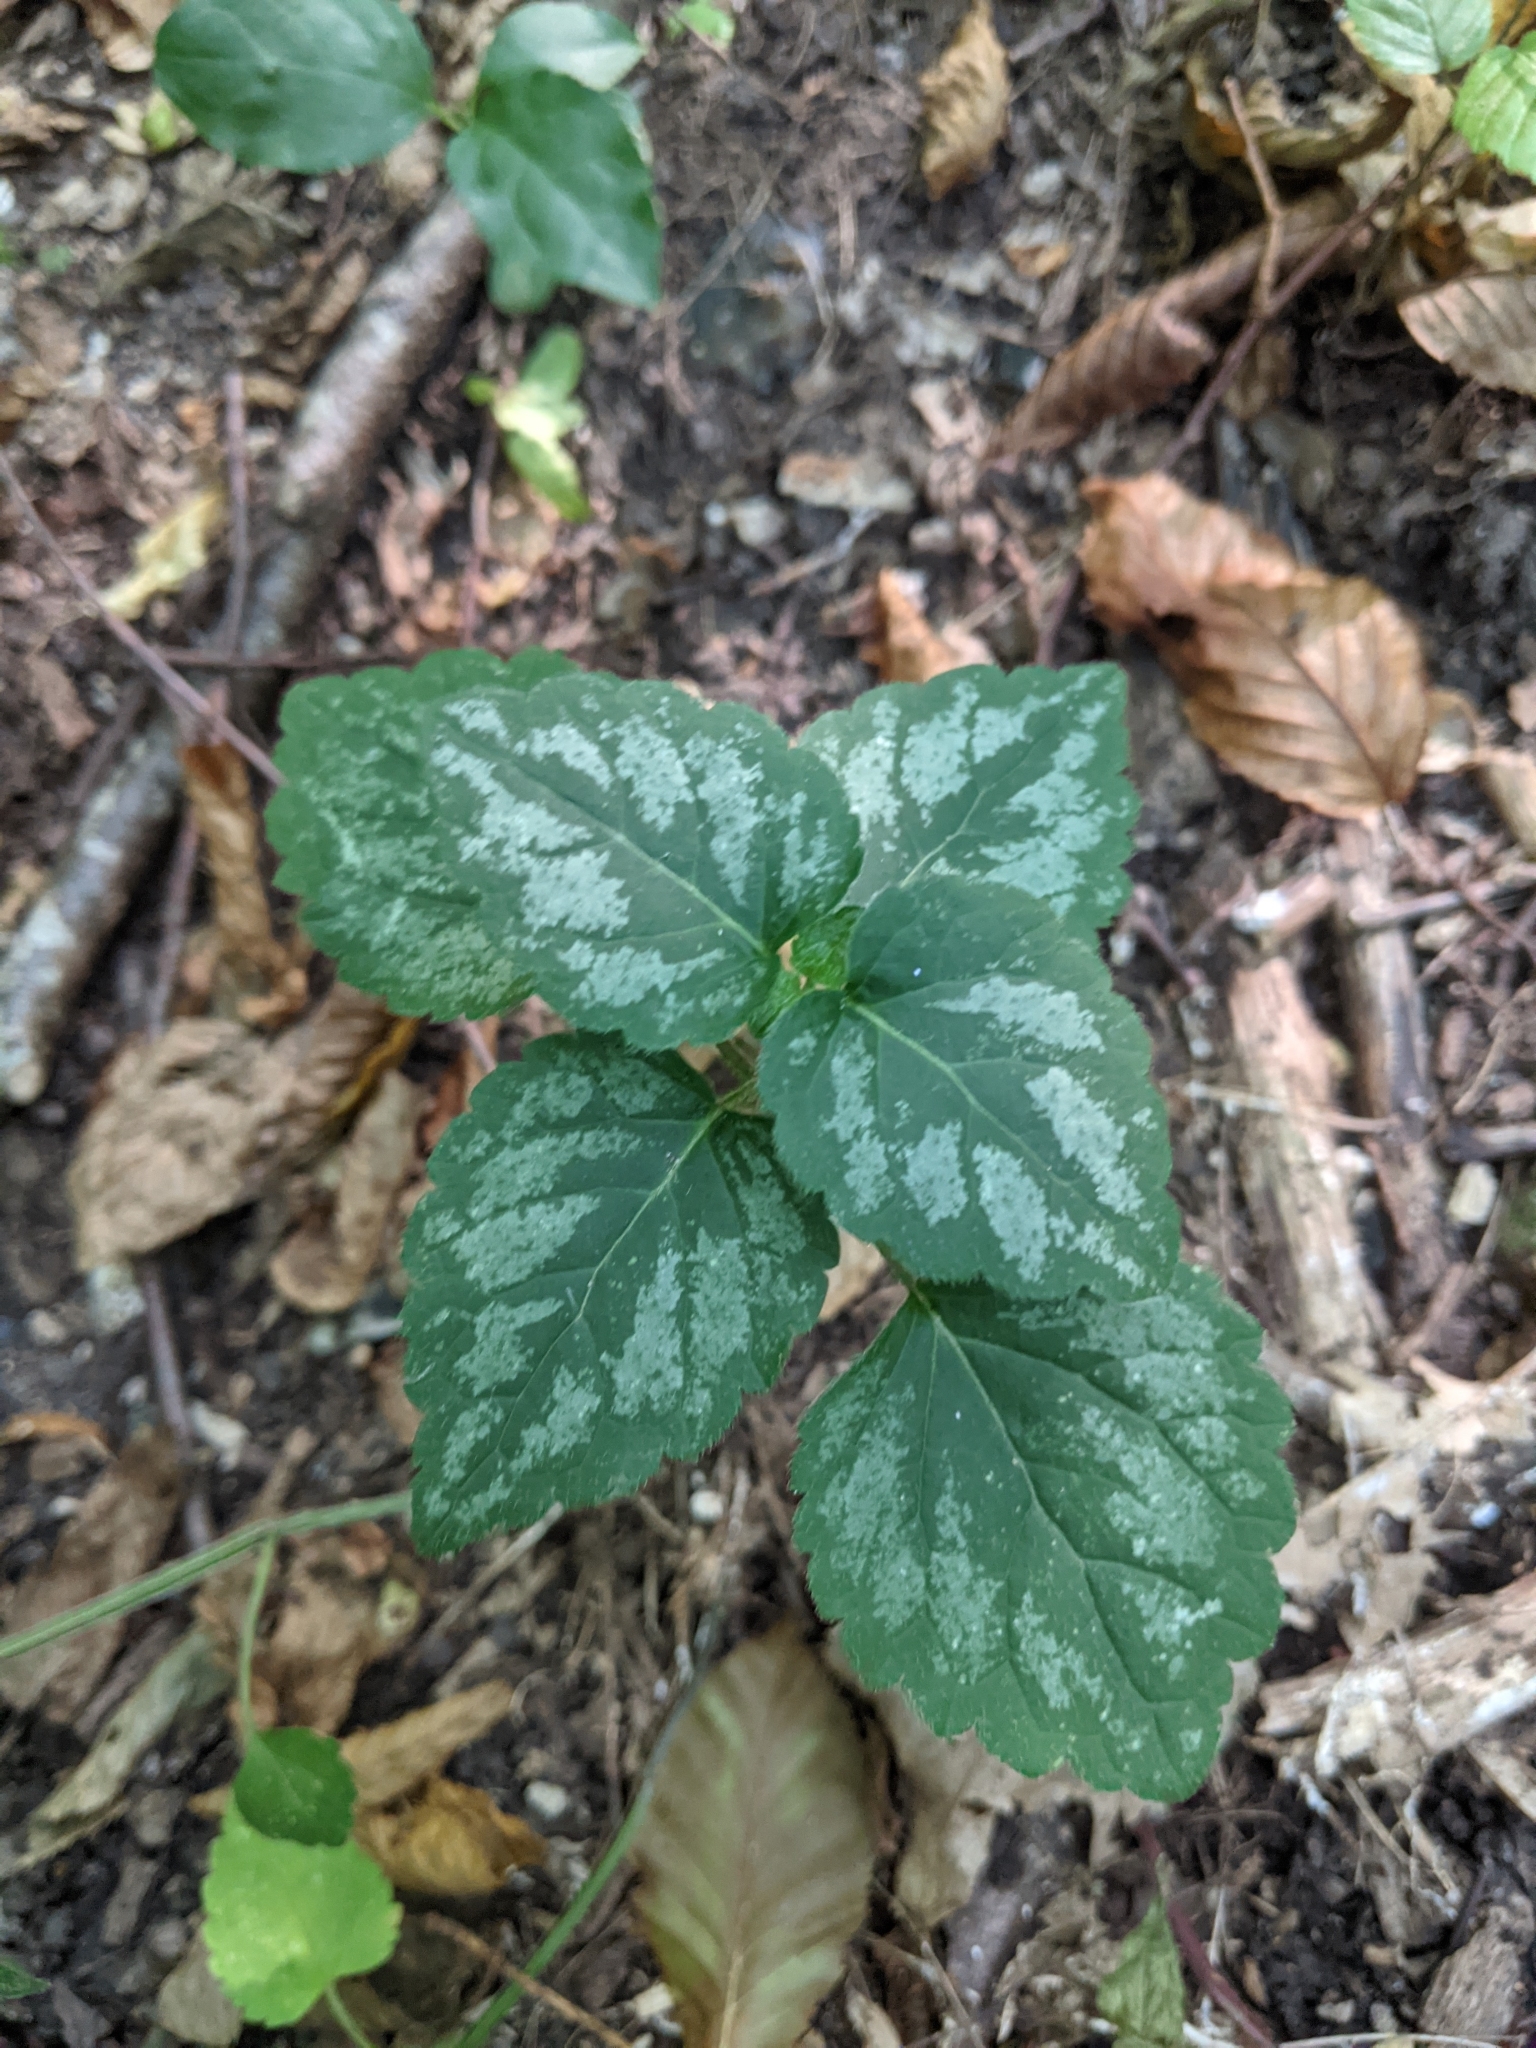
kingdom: Plantae
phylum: Tracheophyta
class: Magnoliopsida
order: Lamiales
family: Lamiaceae
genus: Lamium
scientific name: Lamium galeobdolon
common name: Yellow archangel
